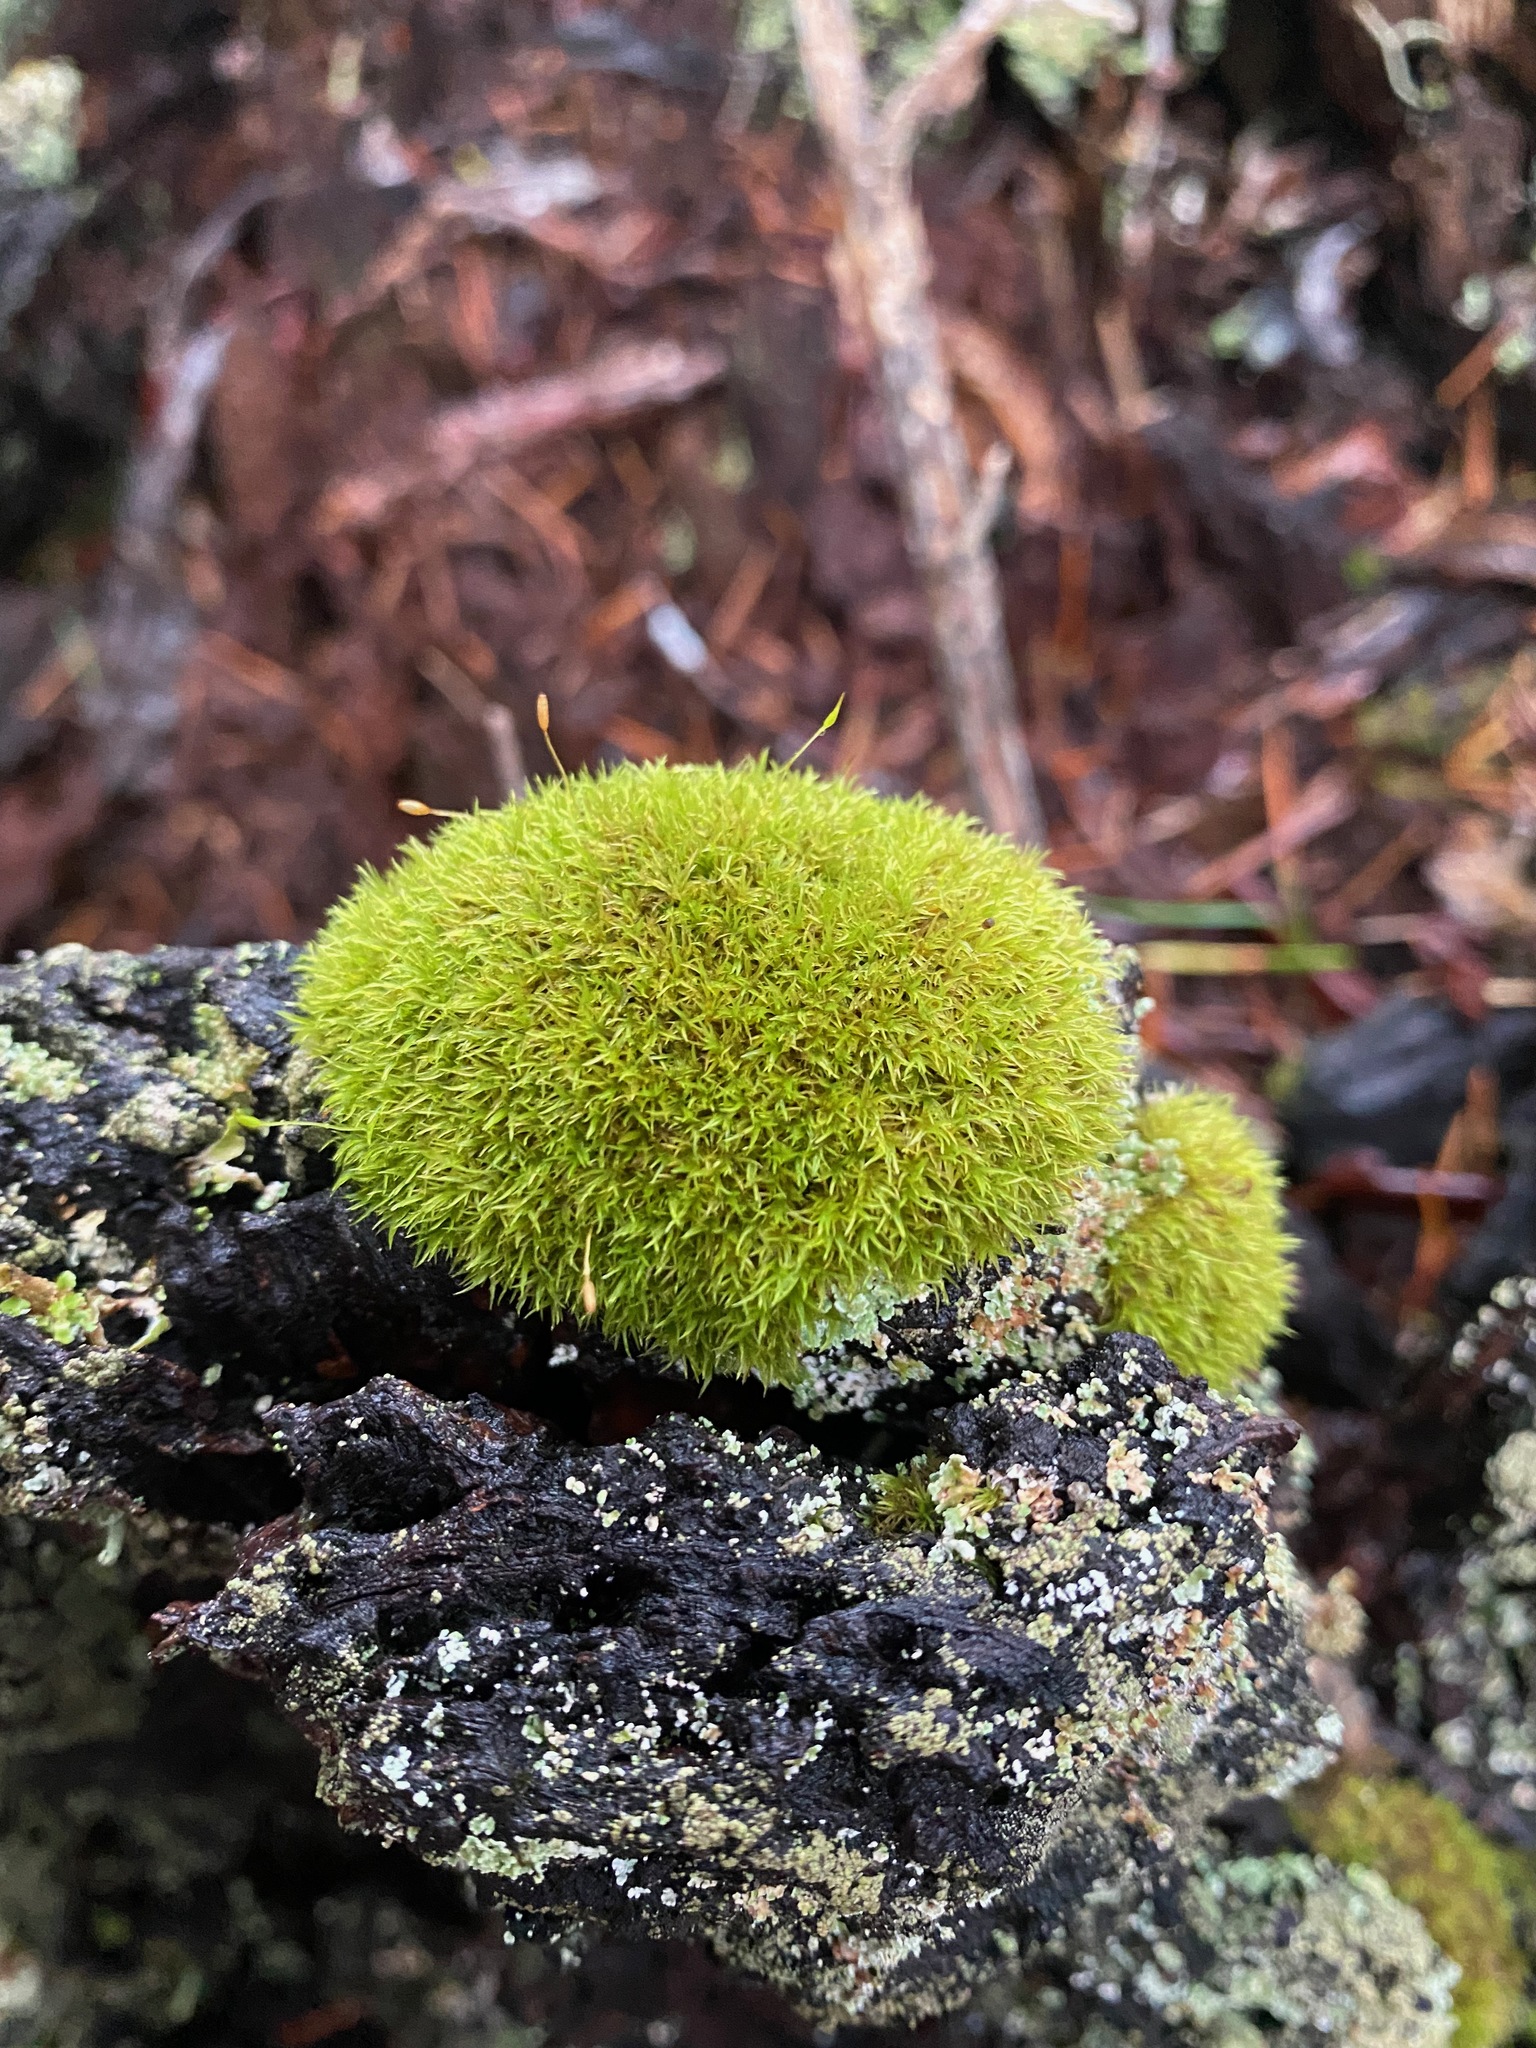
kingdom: Plantae
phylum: Bryophyta
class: Bryopsida
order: Dicranales
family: Rhabdoweisiaceae
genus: Dicranoweisia
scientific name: Dicranoweisia cirrata
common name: Common pincushion
